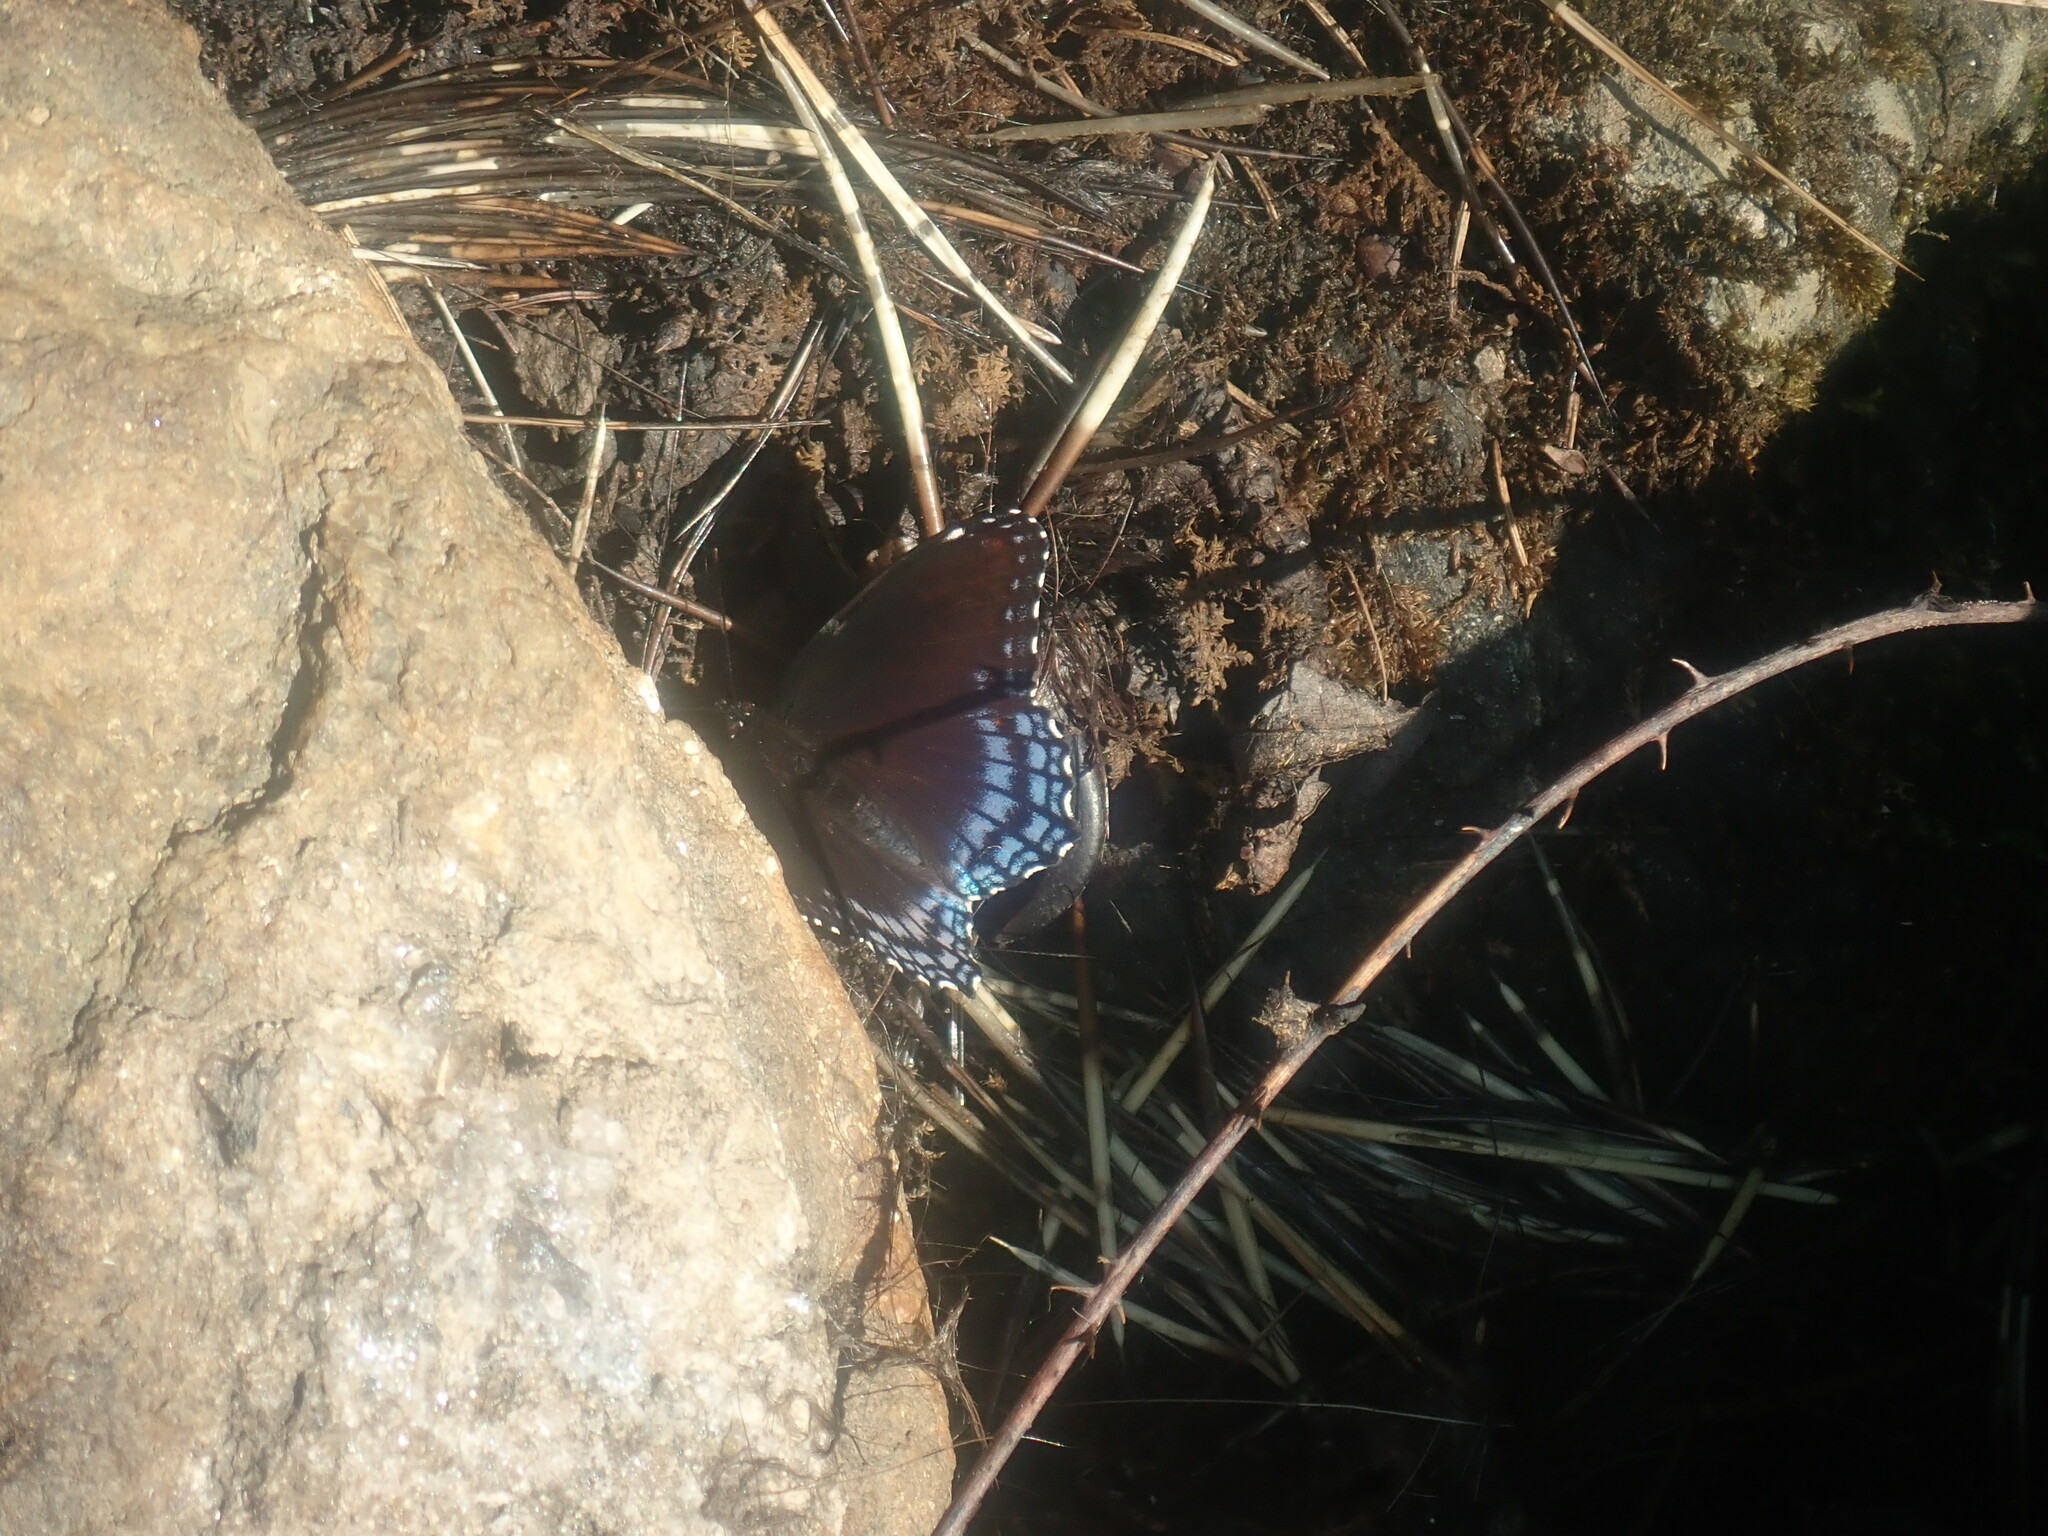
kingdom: Animalia
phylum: Arthropoda
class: Insecta
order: Lepidoptera
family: Nymphalidae
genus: Limenitis
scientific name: Limenitis arthemis
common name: Red-spotted admiral
